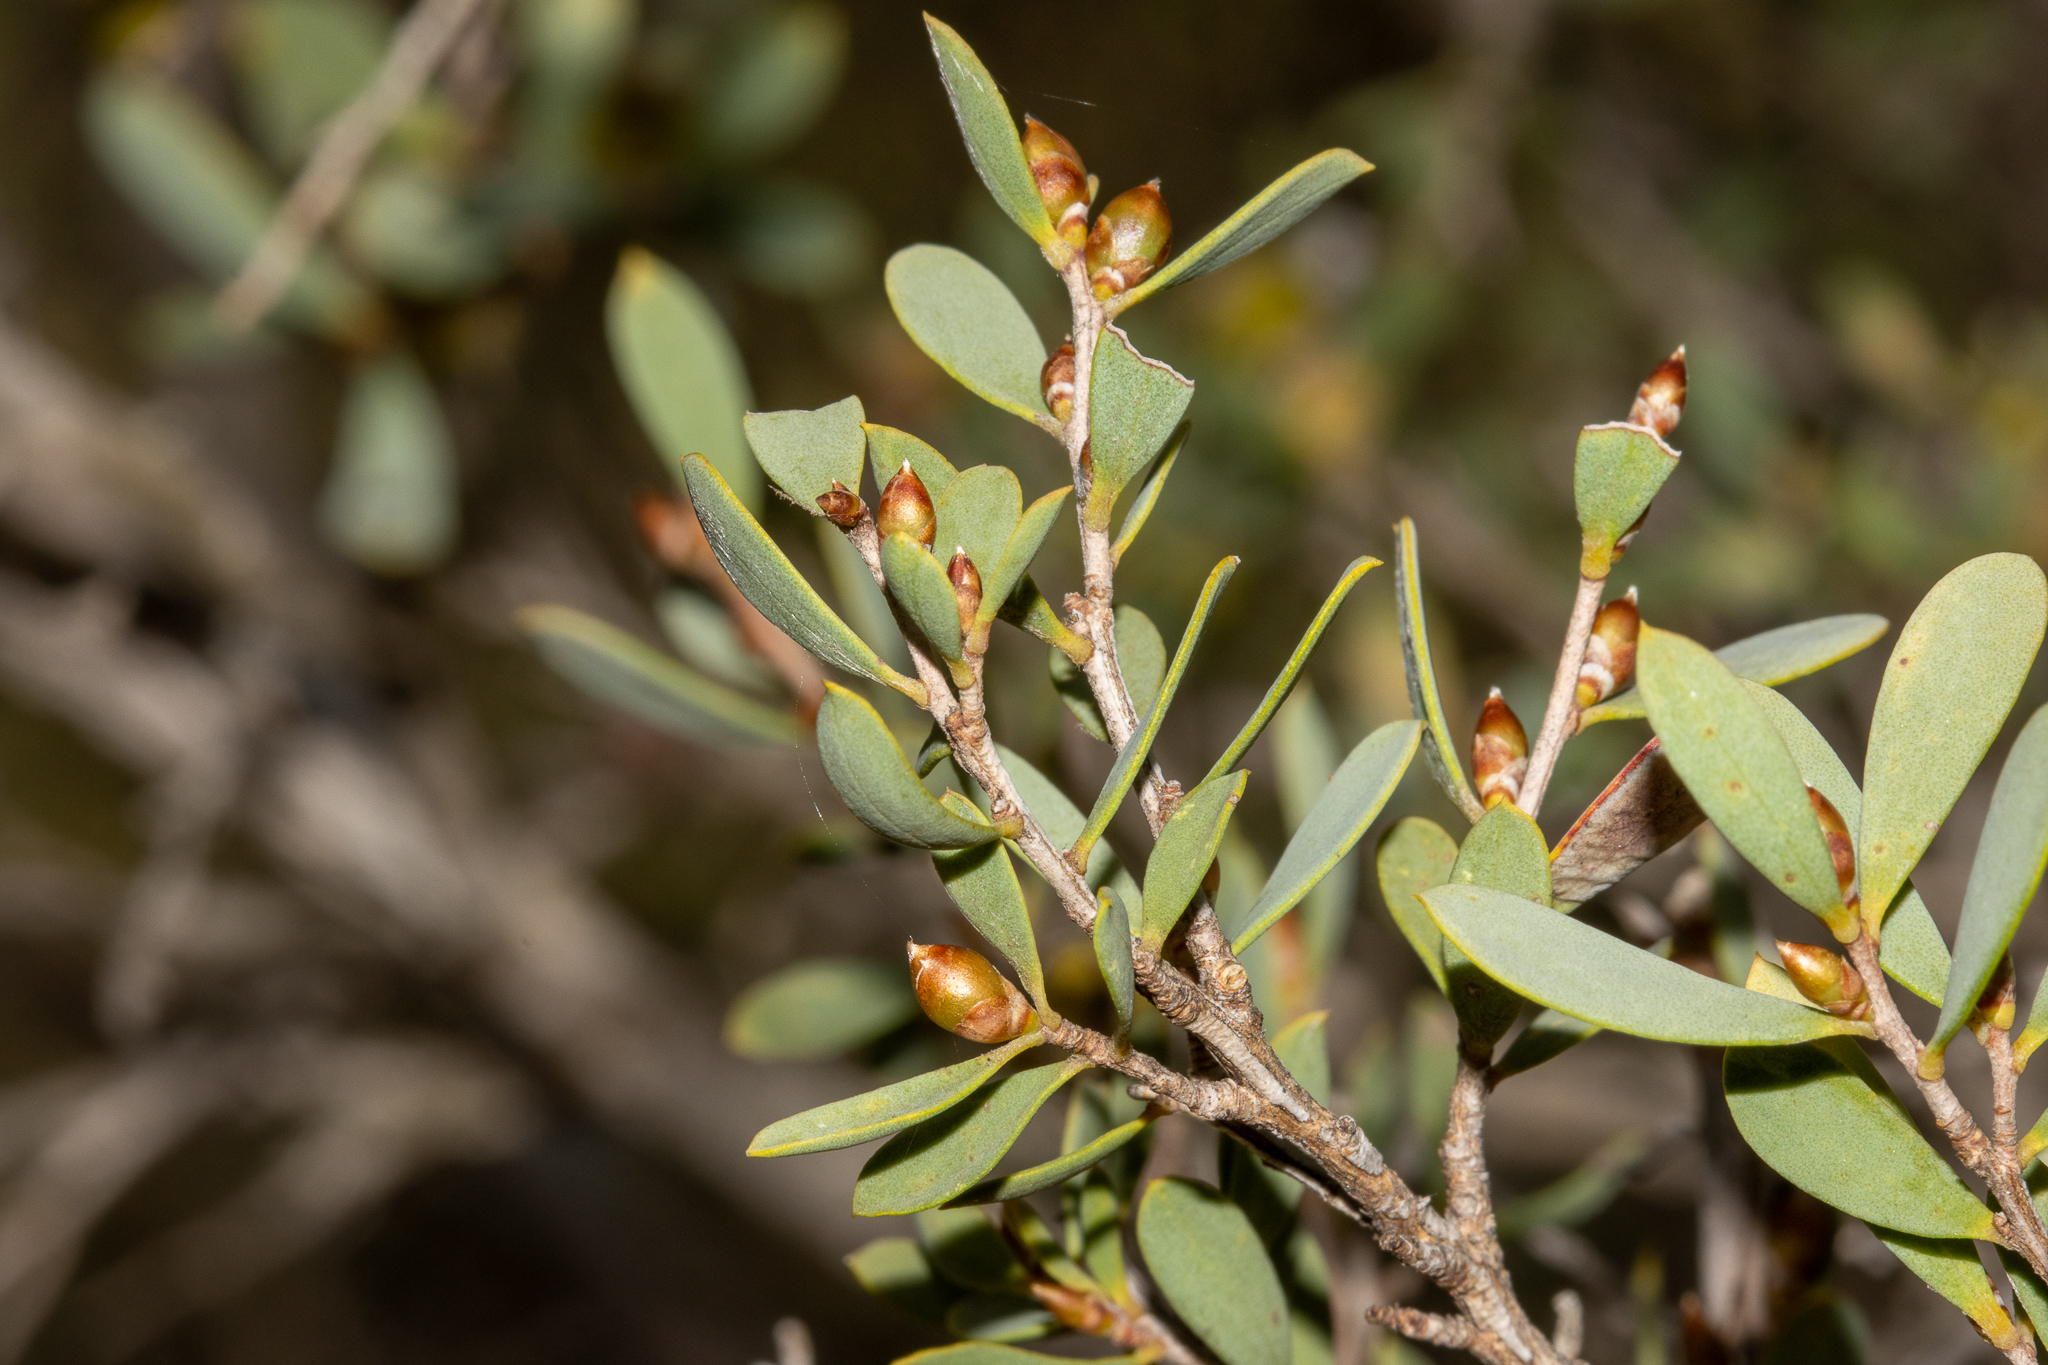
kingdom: Plantae
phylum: Tracheophyta
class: Magnoliopsida
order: Myrtales
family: Myrtaceae
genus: Leptospermum
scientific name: Leptospermum coriaceum
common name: Mallee teatree
